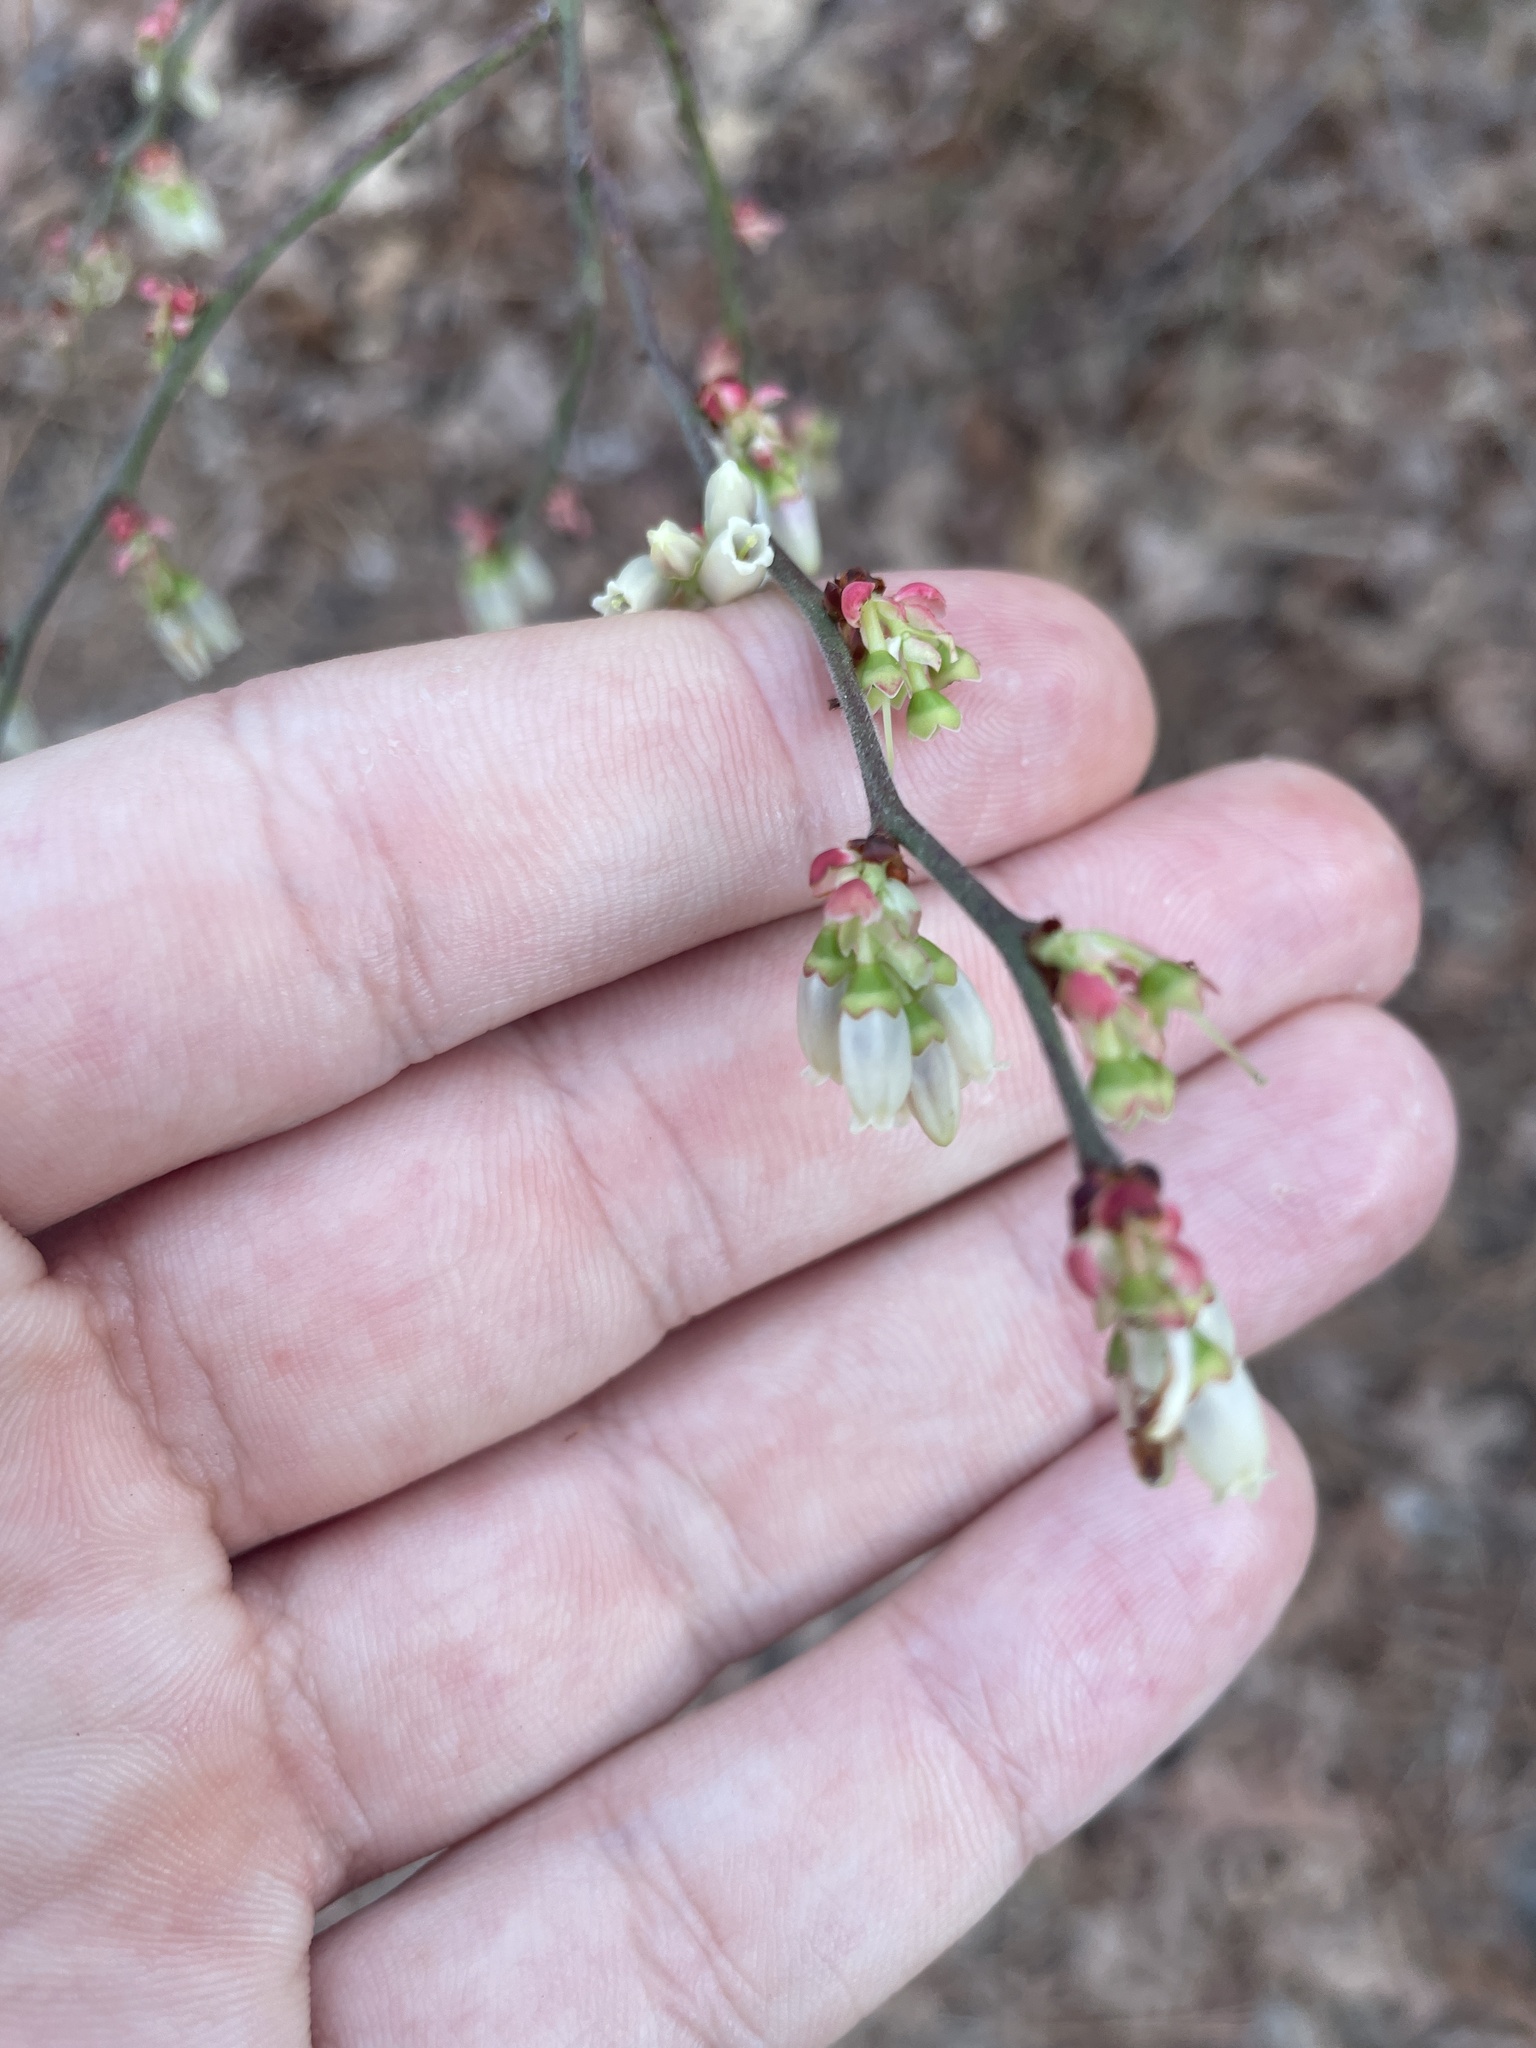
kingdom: Plantae
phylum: Tracheophyta
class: Magnoliopsida
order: Ericales
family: Ericaceae
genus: Vaccinium
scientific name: Vaccinium corymbosum
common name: Blueberry
